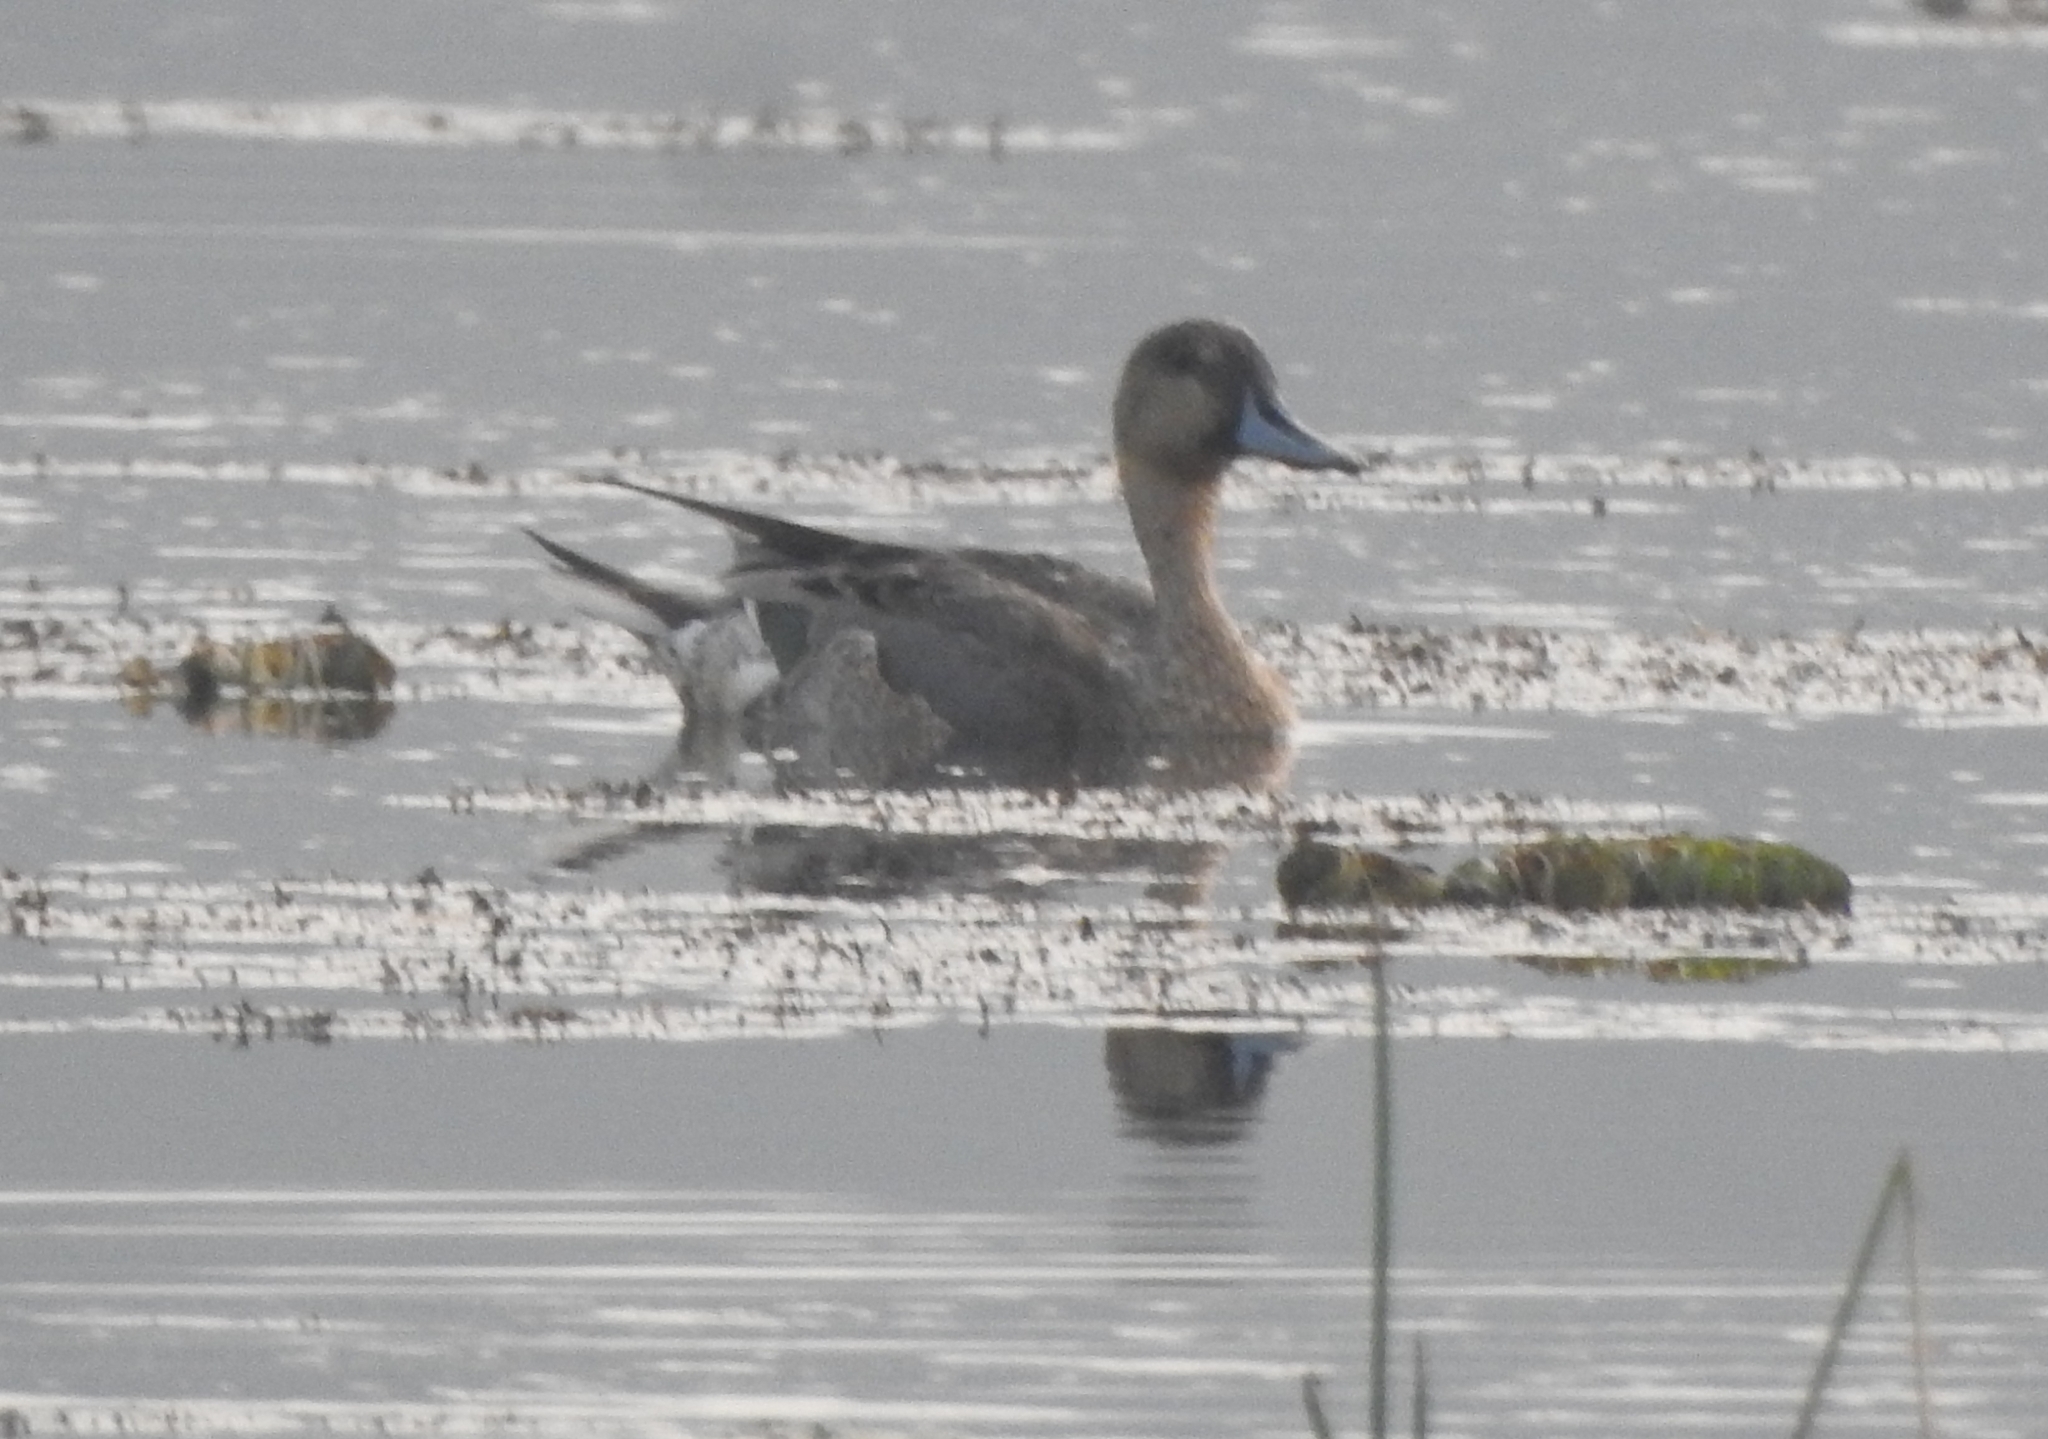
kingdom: Animalia
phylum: Chordata
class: Aves
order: Anseriformes
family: Anatidae
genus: Anas
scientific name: Anas acuta
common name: Northern pintail
